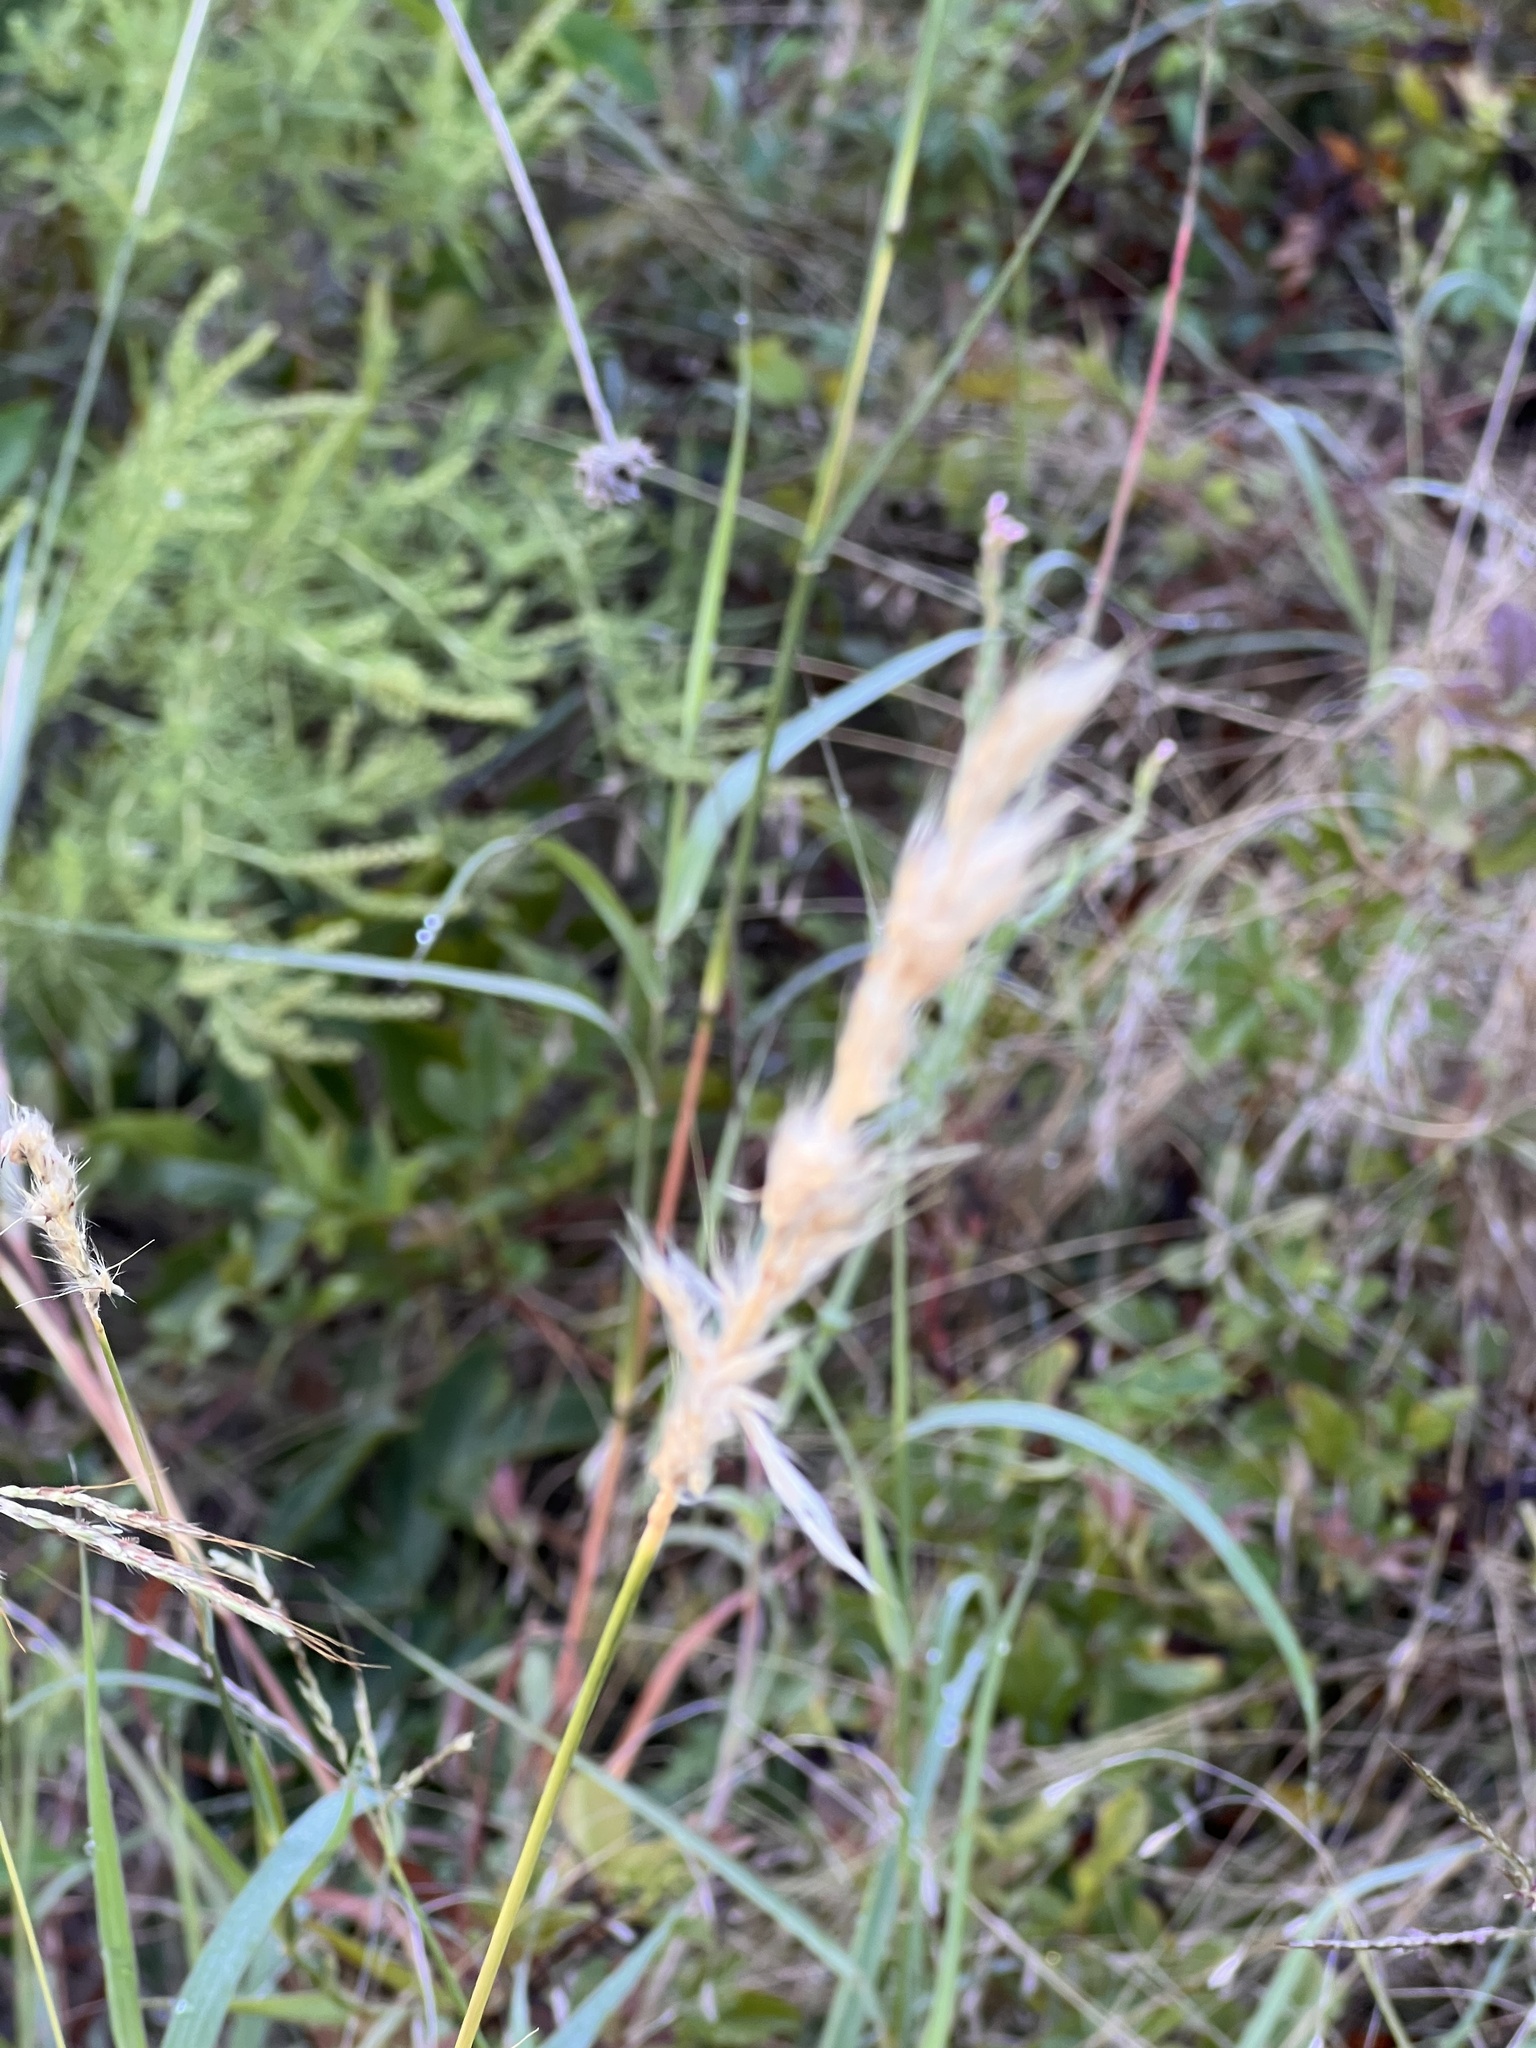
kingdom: Plantae
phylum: Tracheophyta
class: Liliopsida
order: Poales
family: Poaceae
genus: Bothriochloa
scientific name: Bothriochloa torreyana
